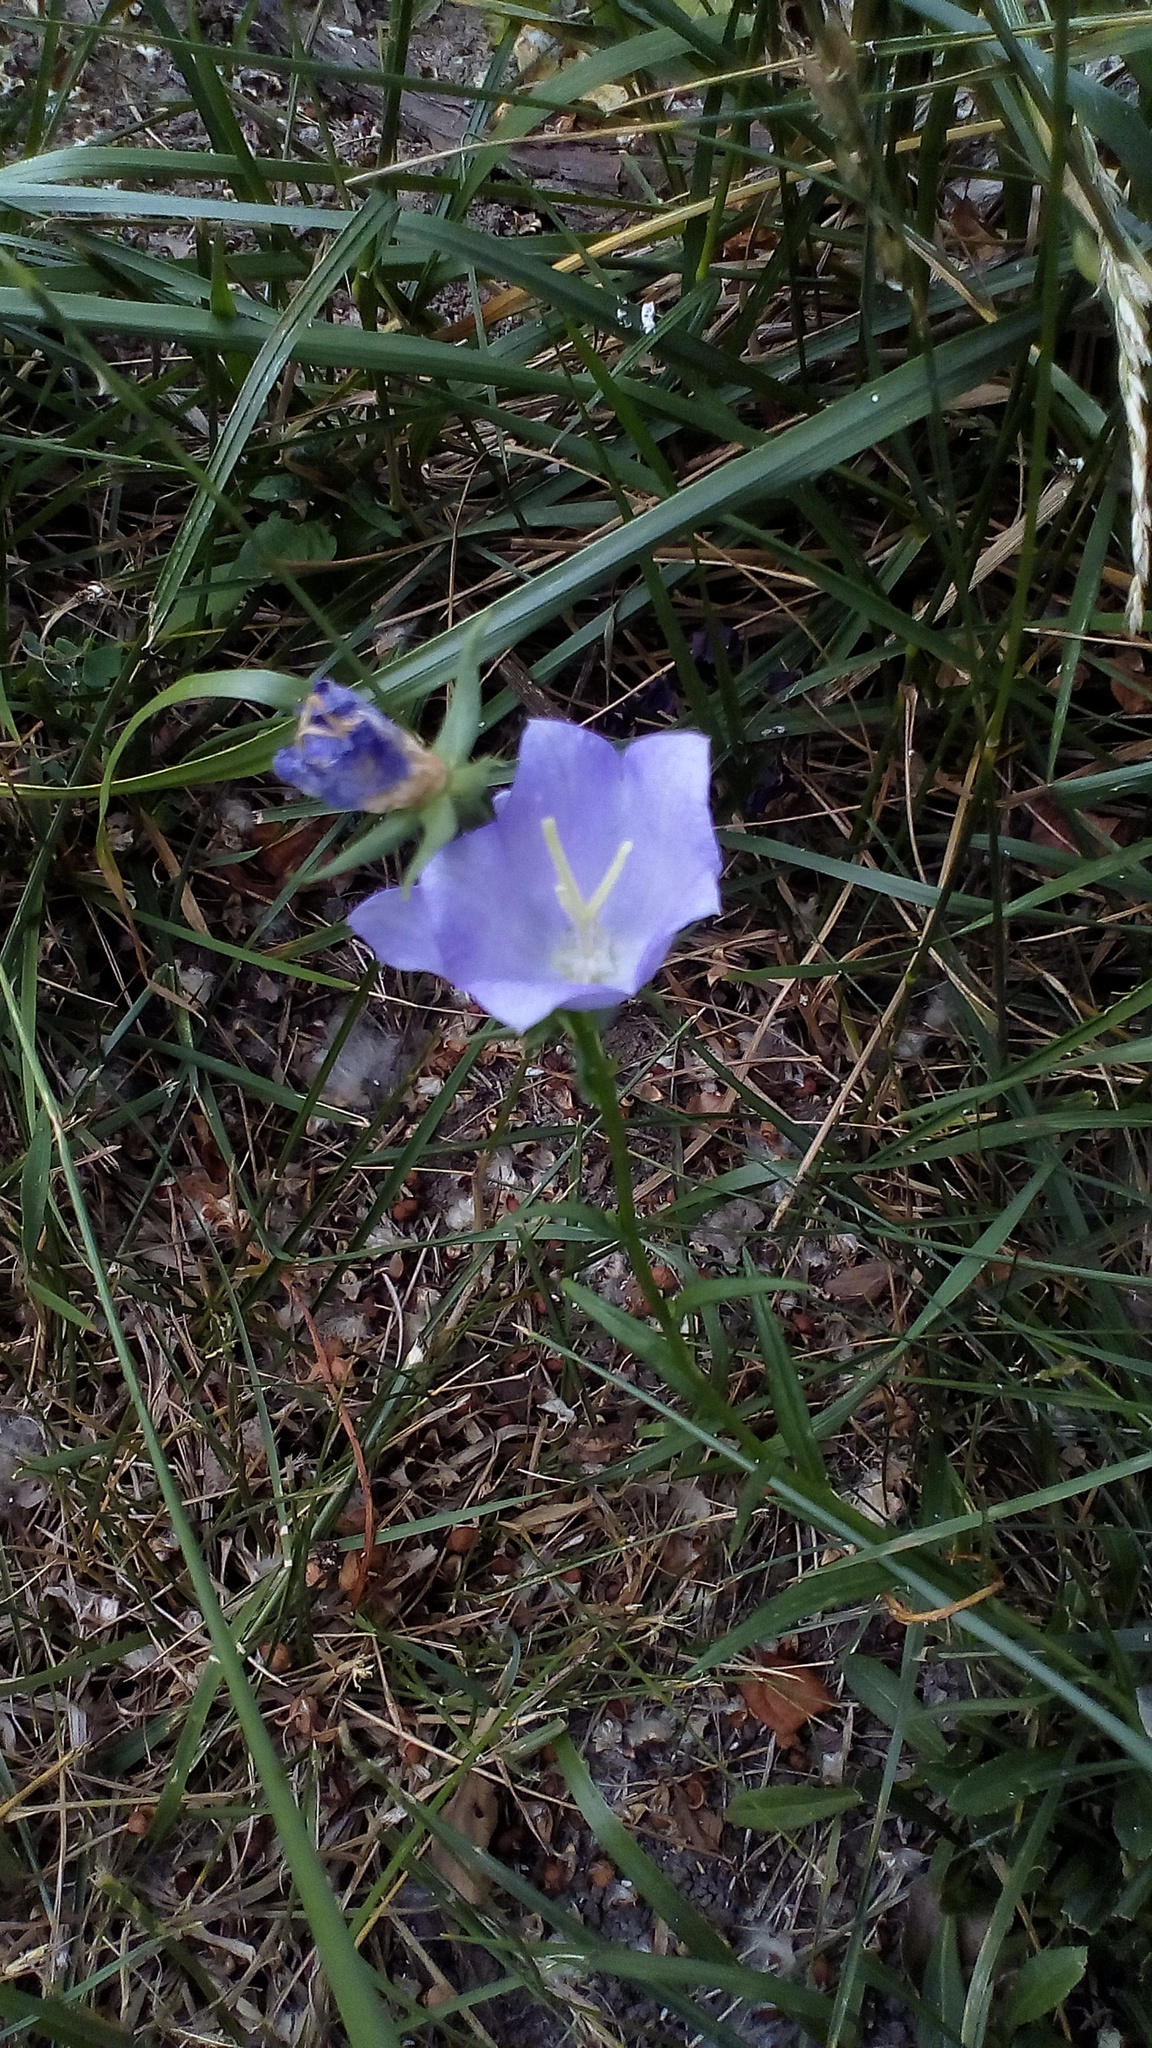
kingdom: Plantae
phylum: Tracheophyta
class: Magnoliopsida
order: Asterales
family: Campanulaceae
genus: Campanula
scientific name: Campanula persicifolia
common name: Peach-leaved bellflower
